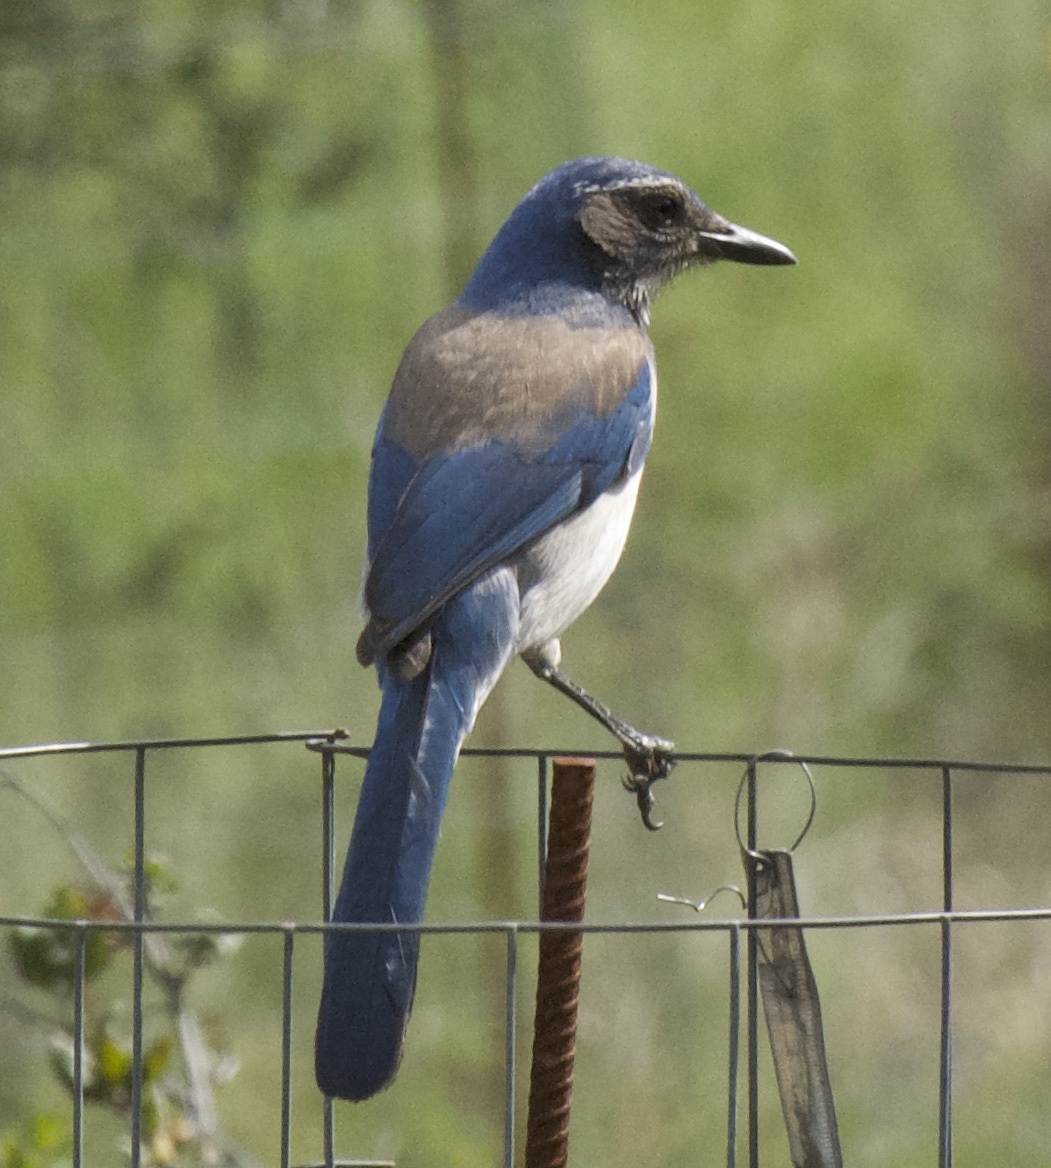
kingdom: Animalia
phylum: Chordata
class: Aves
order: Passeriformes
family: Corvidae
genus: Aphelocoma
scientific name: Aphelocoma californica
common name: California scrub-jay
